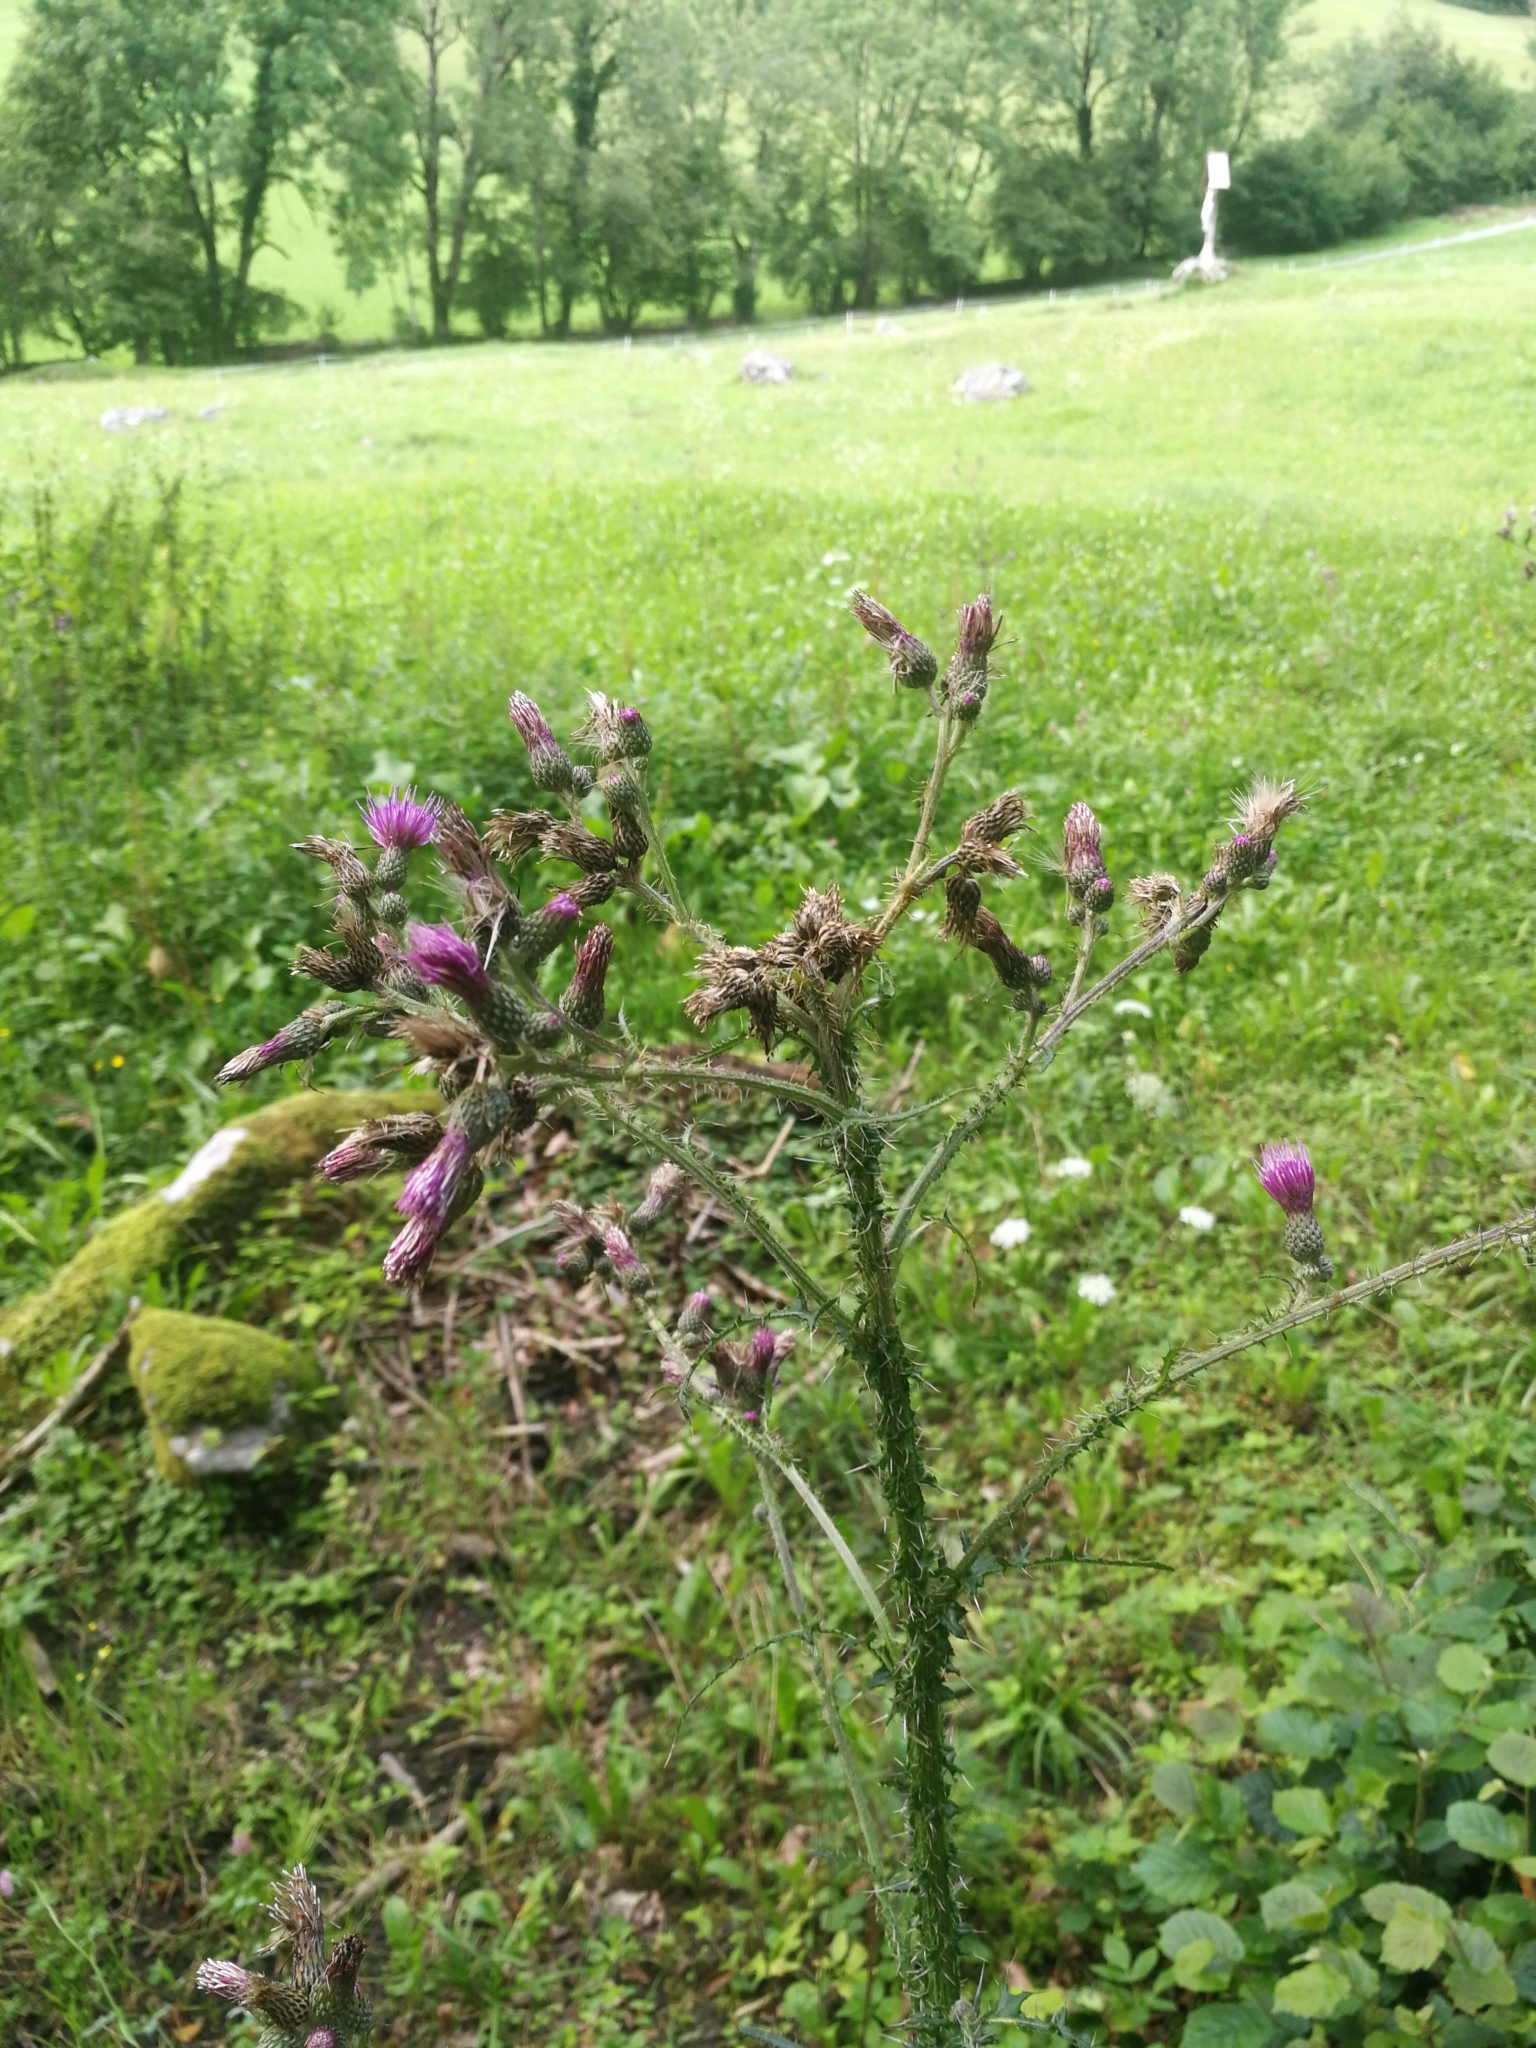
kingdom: Plantae
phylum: Tracheophyta
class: Magnoliopsida
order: Asterales
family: Asteraceae
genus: Cirsium
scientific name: Cirsium palustre
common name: Marsh thistle
